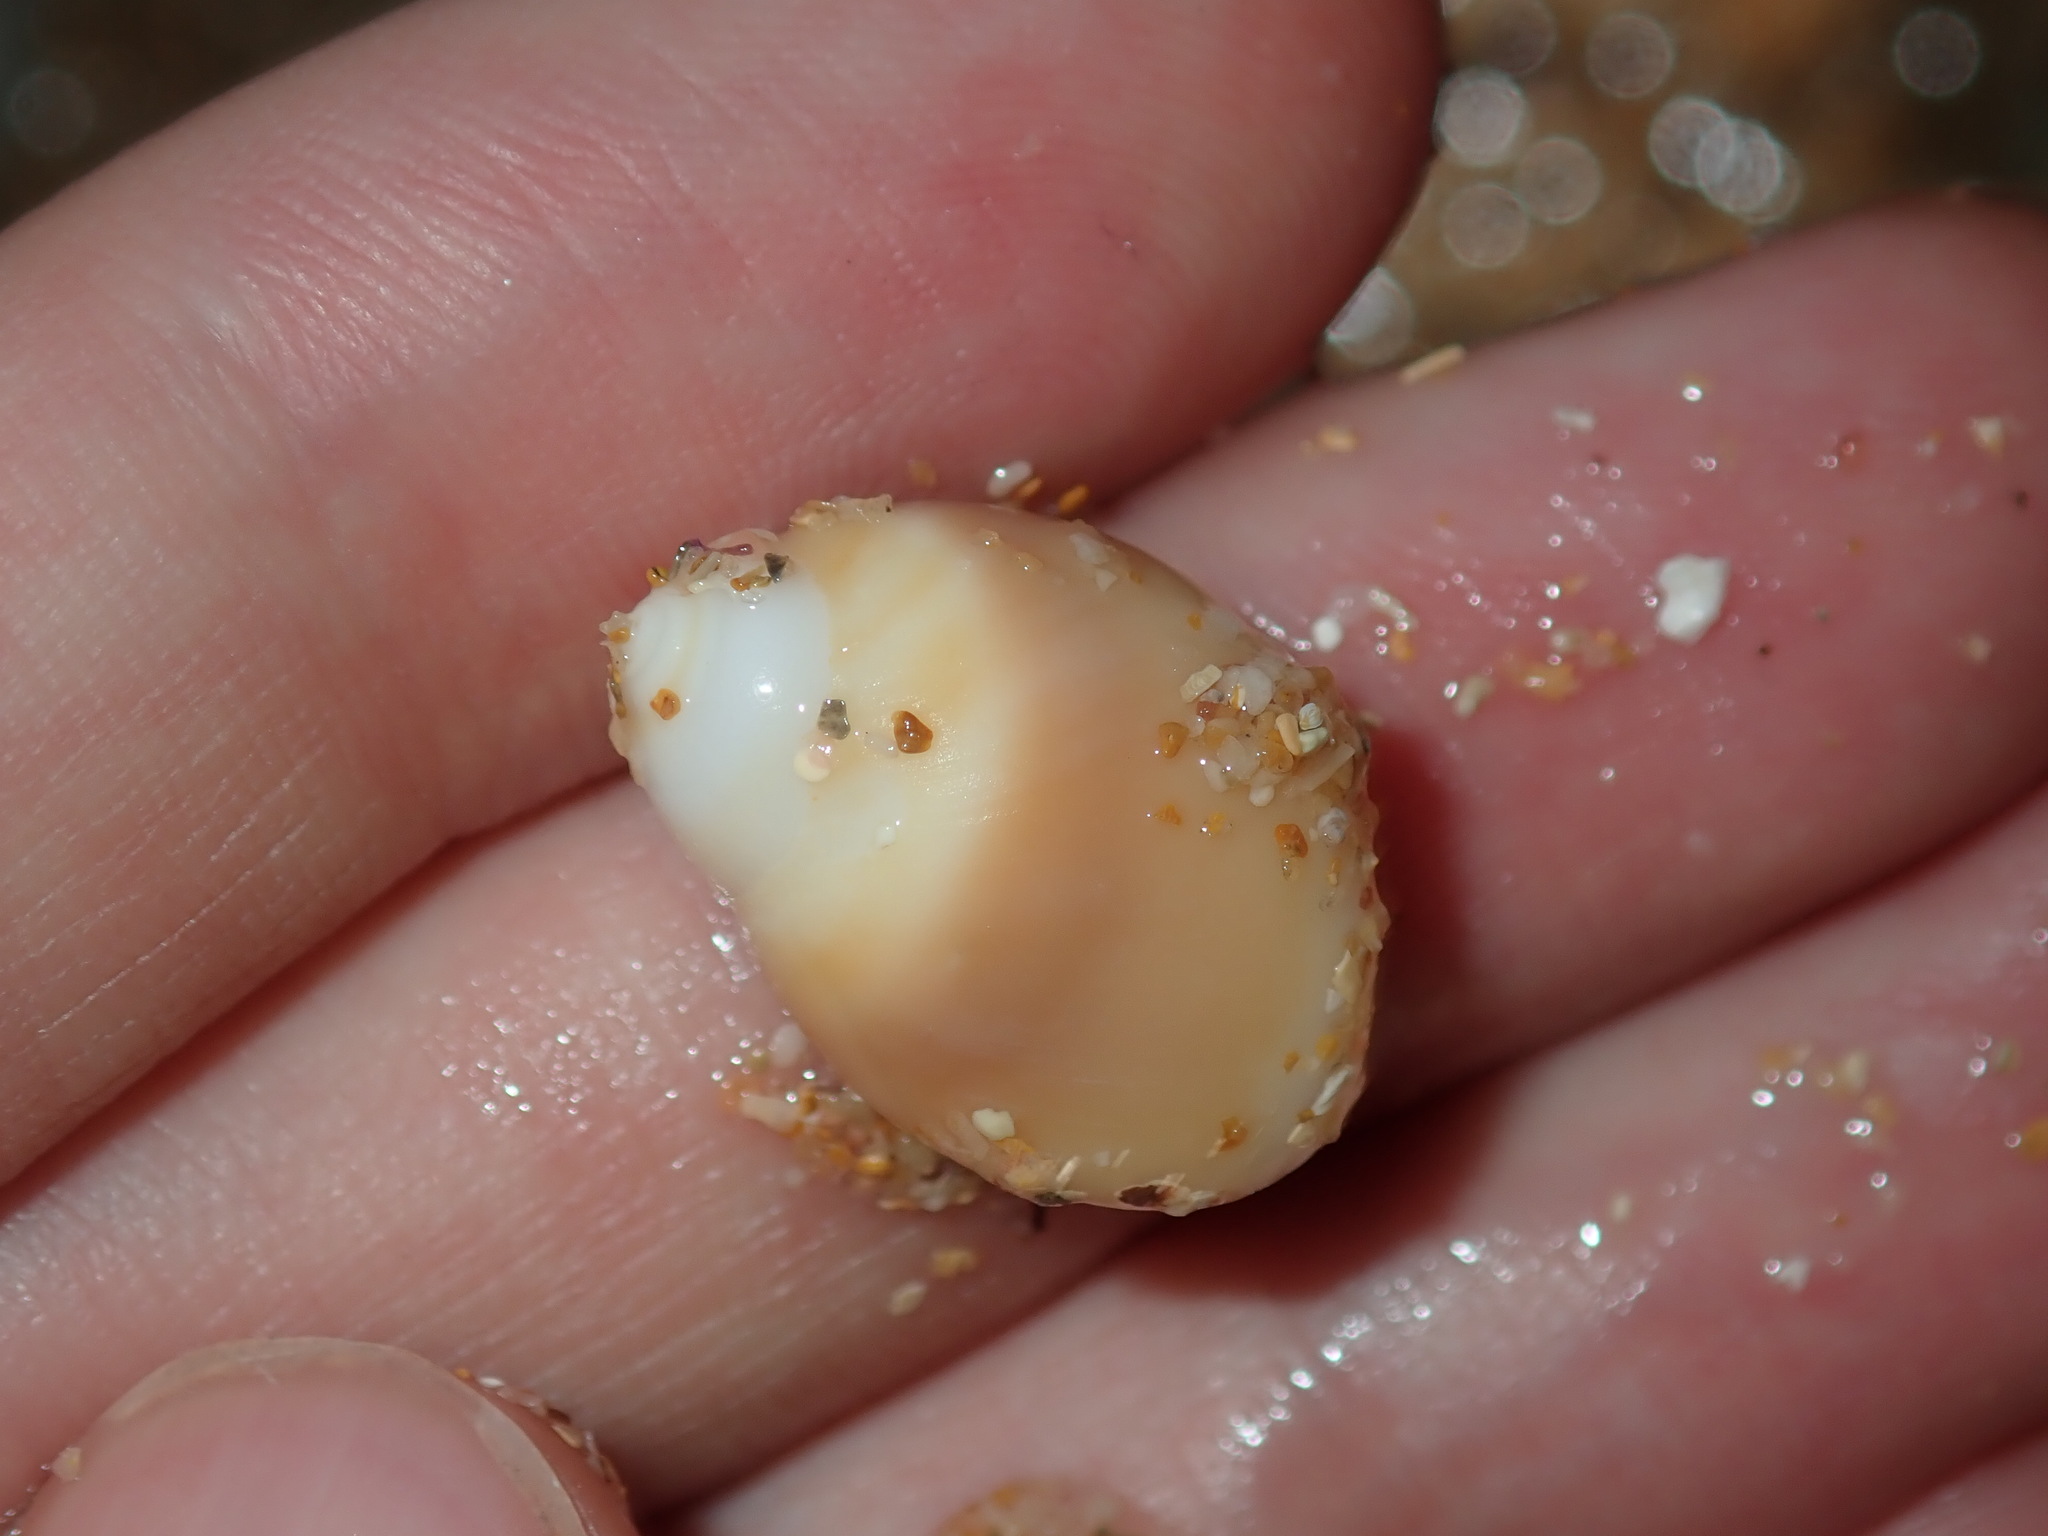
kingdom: Animalia
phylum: Mollusca
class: Gastropoda
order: Littorinimorpha
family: Naticidae
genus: Conuber
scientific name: Conuber conicum
